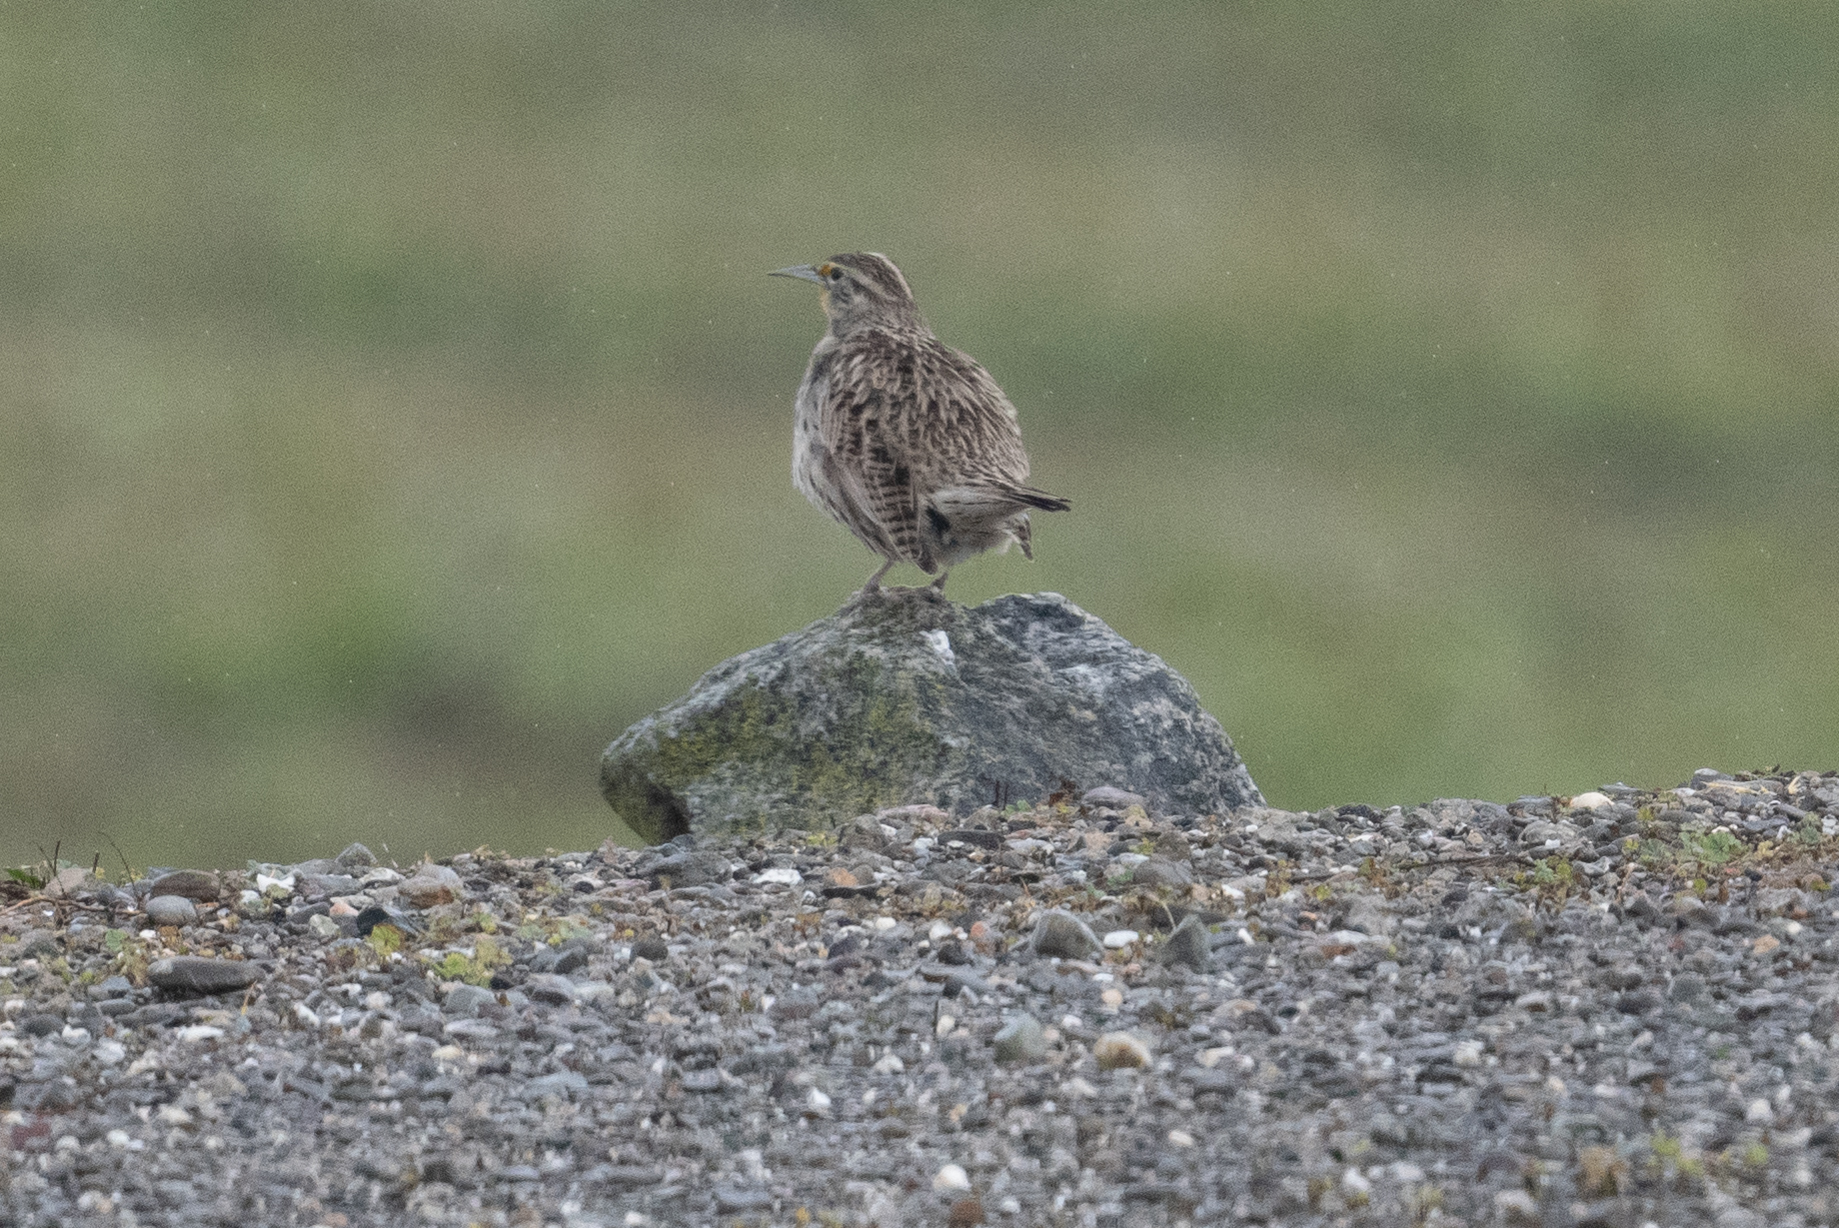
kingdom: Animalia
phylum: Chordata
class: Aves
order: Passeriformes
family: Icteridae
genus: Sturnella
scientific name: Sturnella neglecta
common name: Western meadowlark
